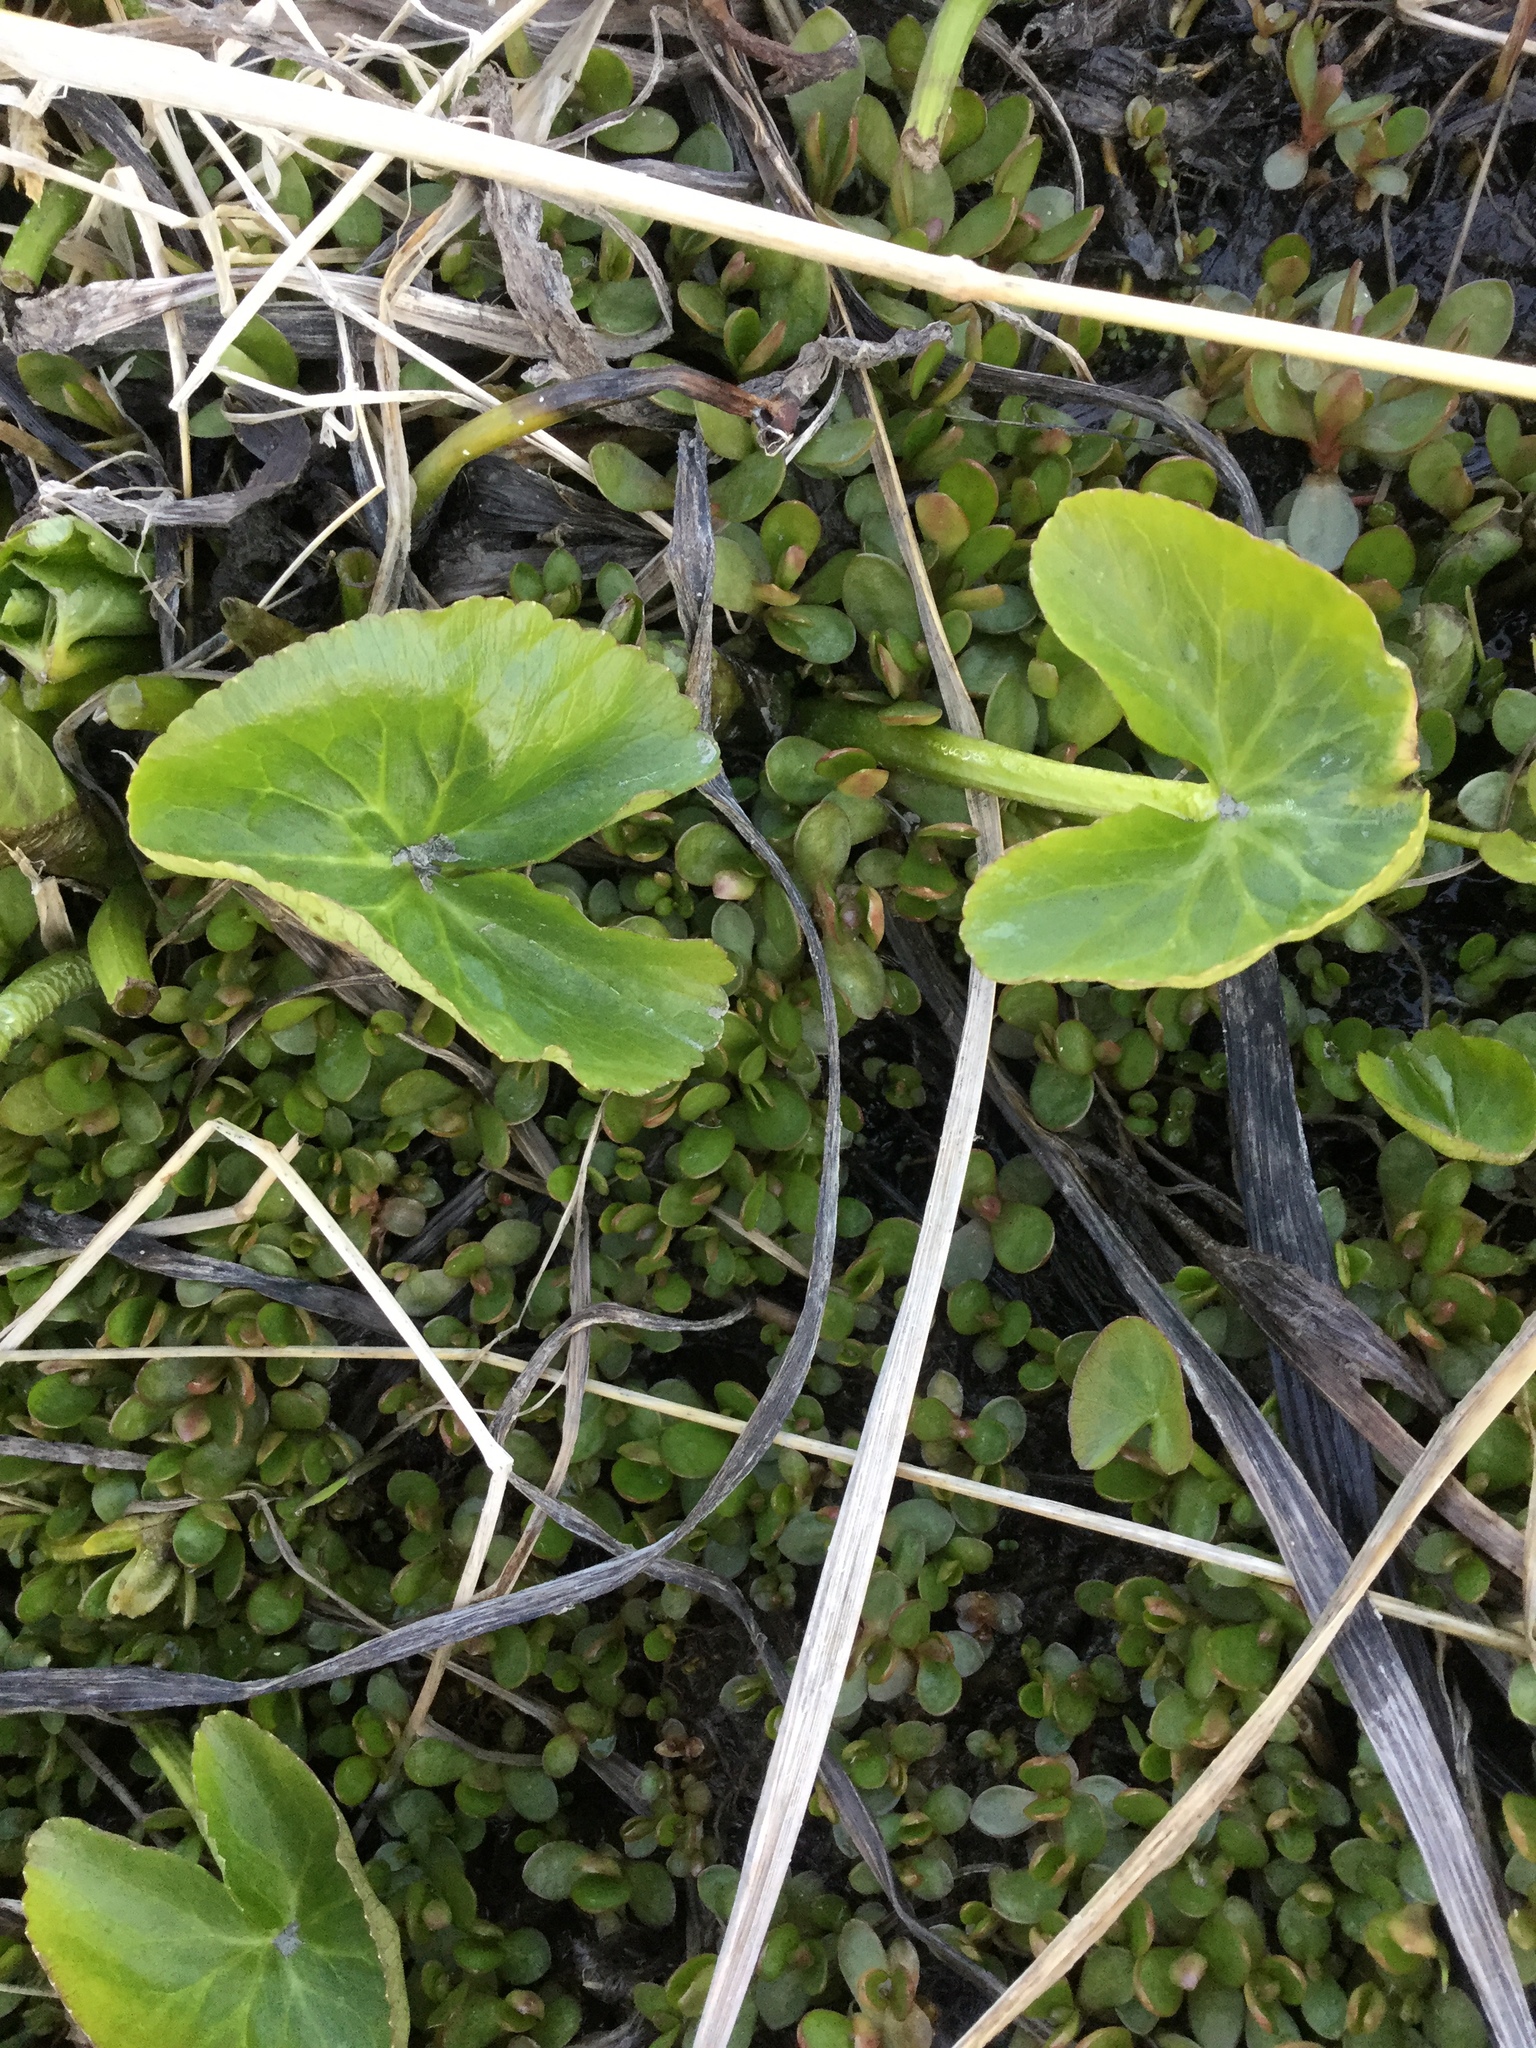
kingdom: Plantae
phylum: Tracheophyta
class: Magnoliopsida
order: Ranunculales
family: Ranunculaceae
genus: Caltha
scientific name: Caltha palustris
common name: Marsh marigold
